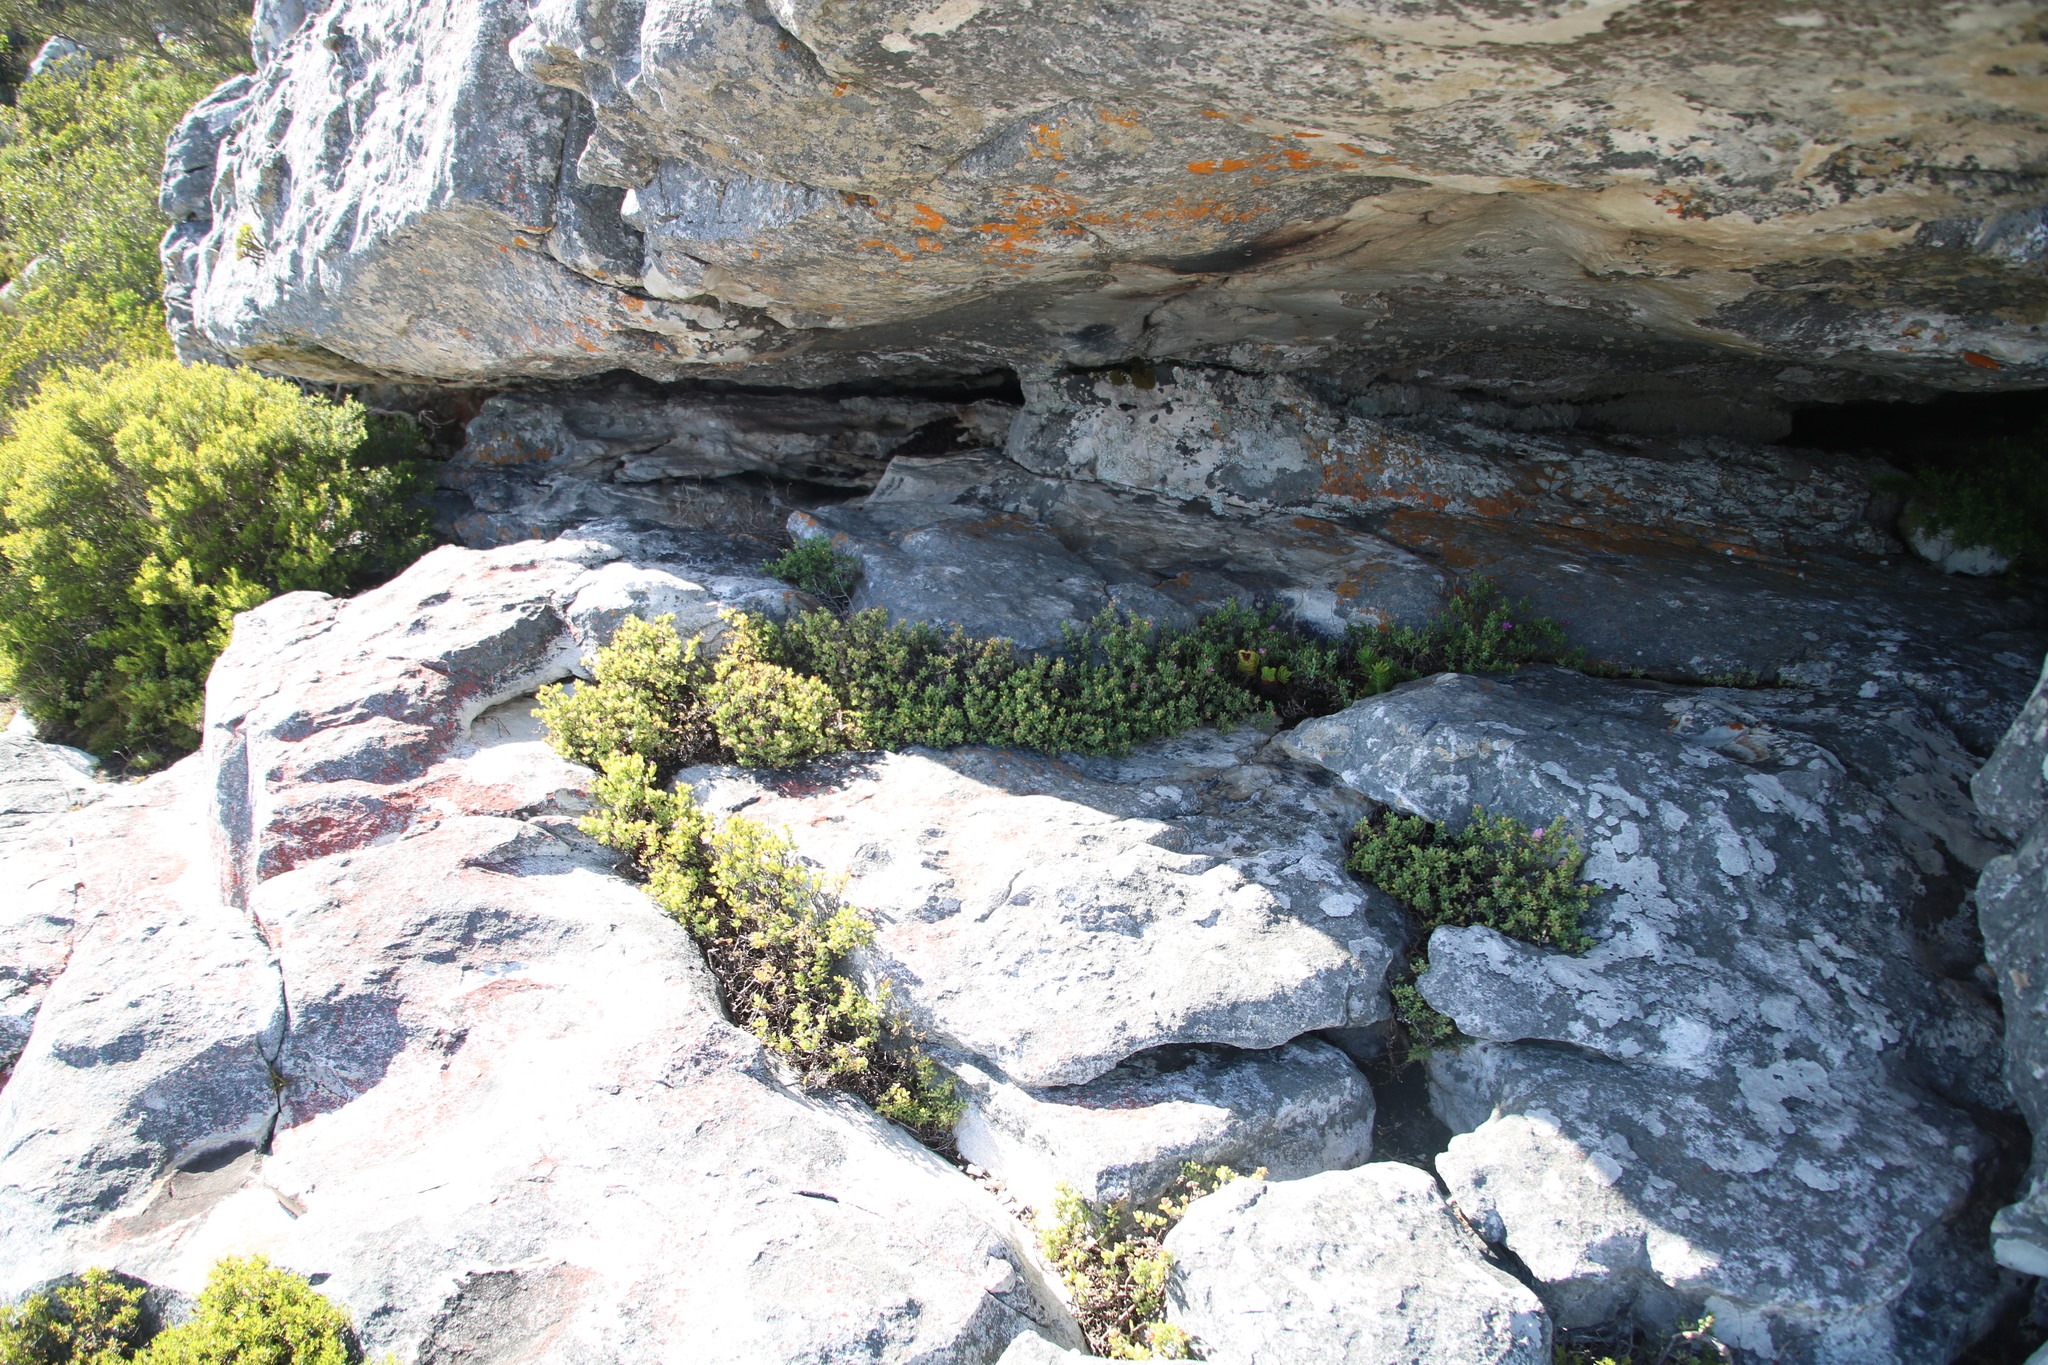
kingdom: Plantae
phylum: Tracheophyta
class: Magnoliopsida
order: Caryophyllales
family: Aizoaceae
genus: Oscularia
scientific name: Oscularia falciformis
